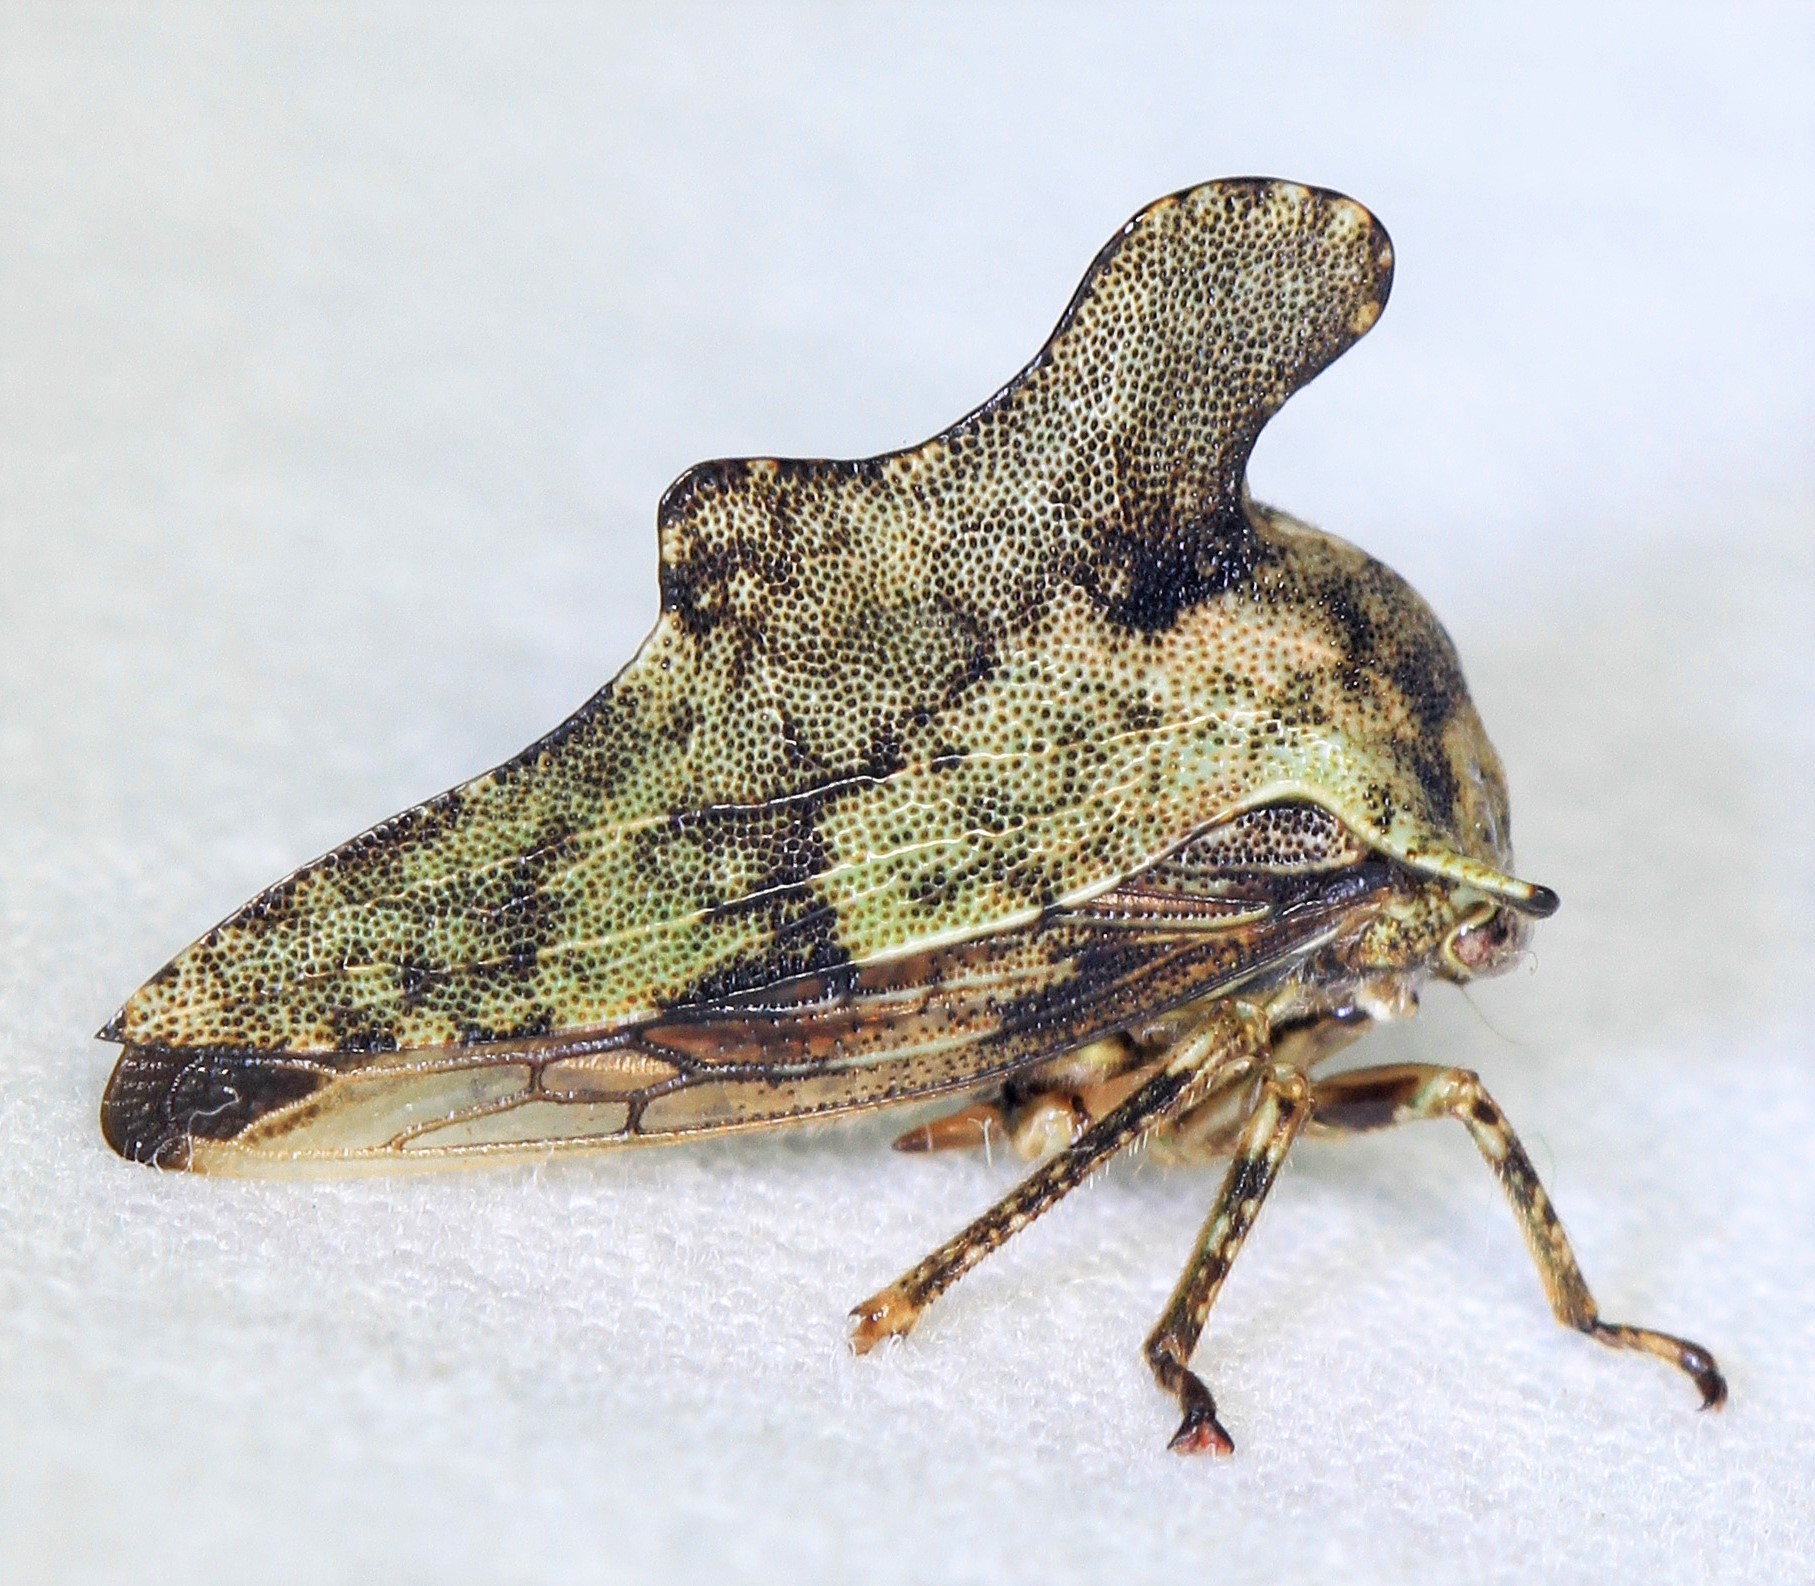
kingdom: Animalia
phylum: Arthropoda
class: Insecta
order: Hemiptera
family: Membracidae
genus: Heliria
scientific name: Heliria cristata
